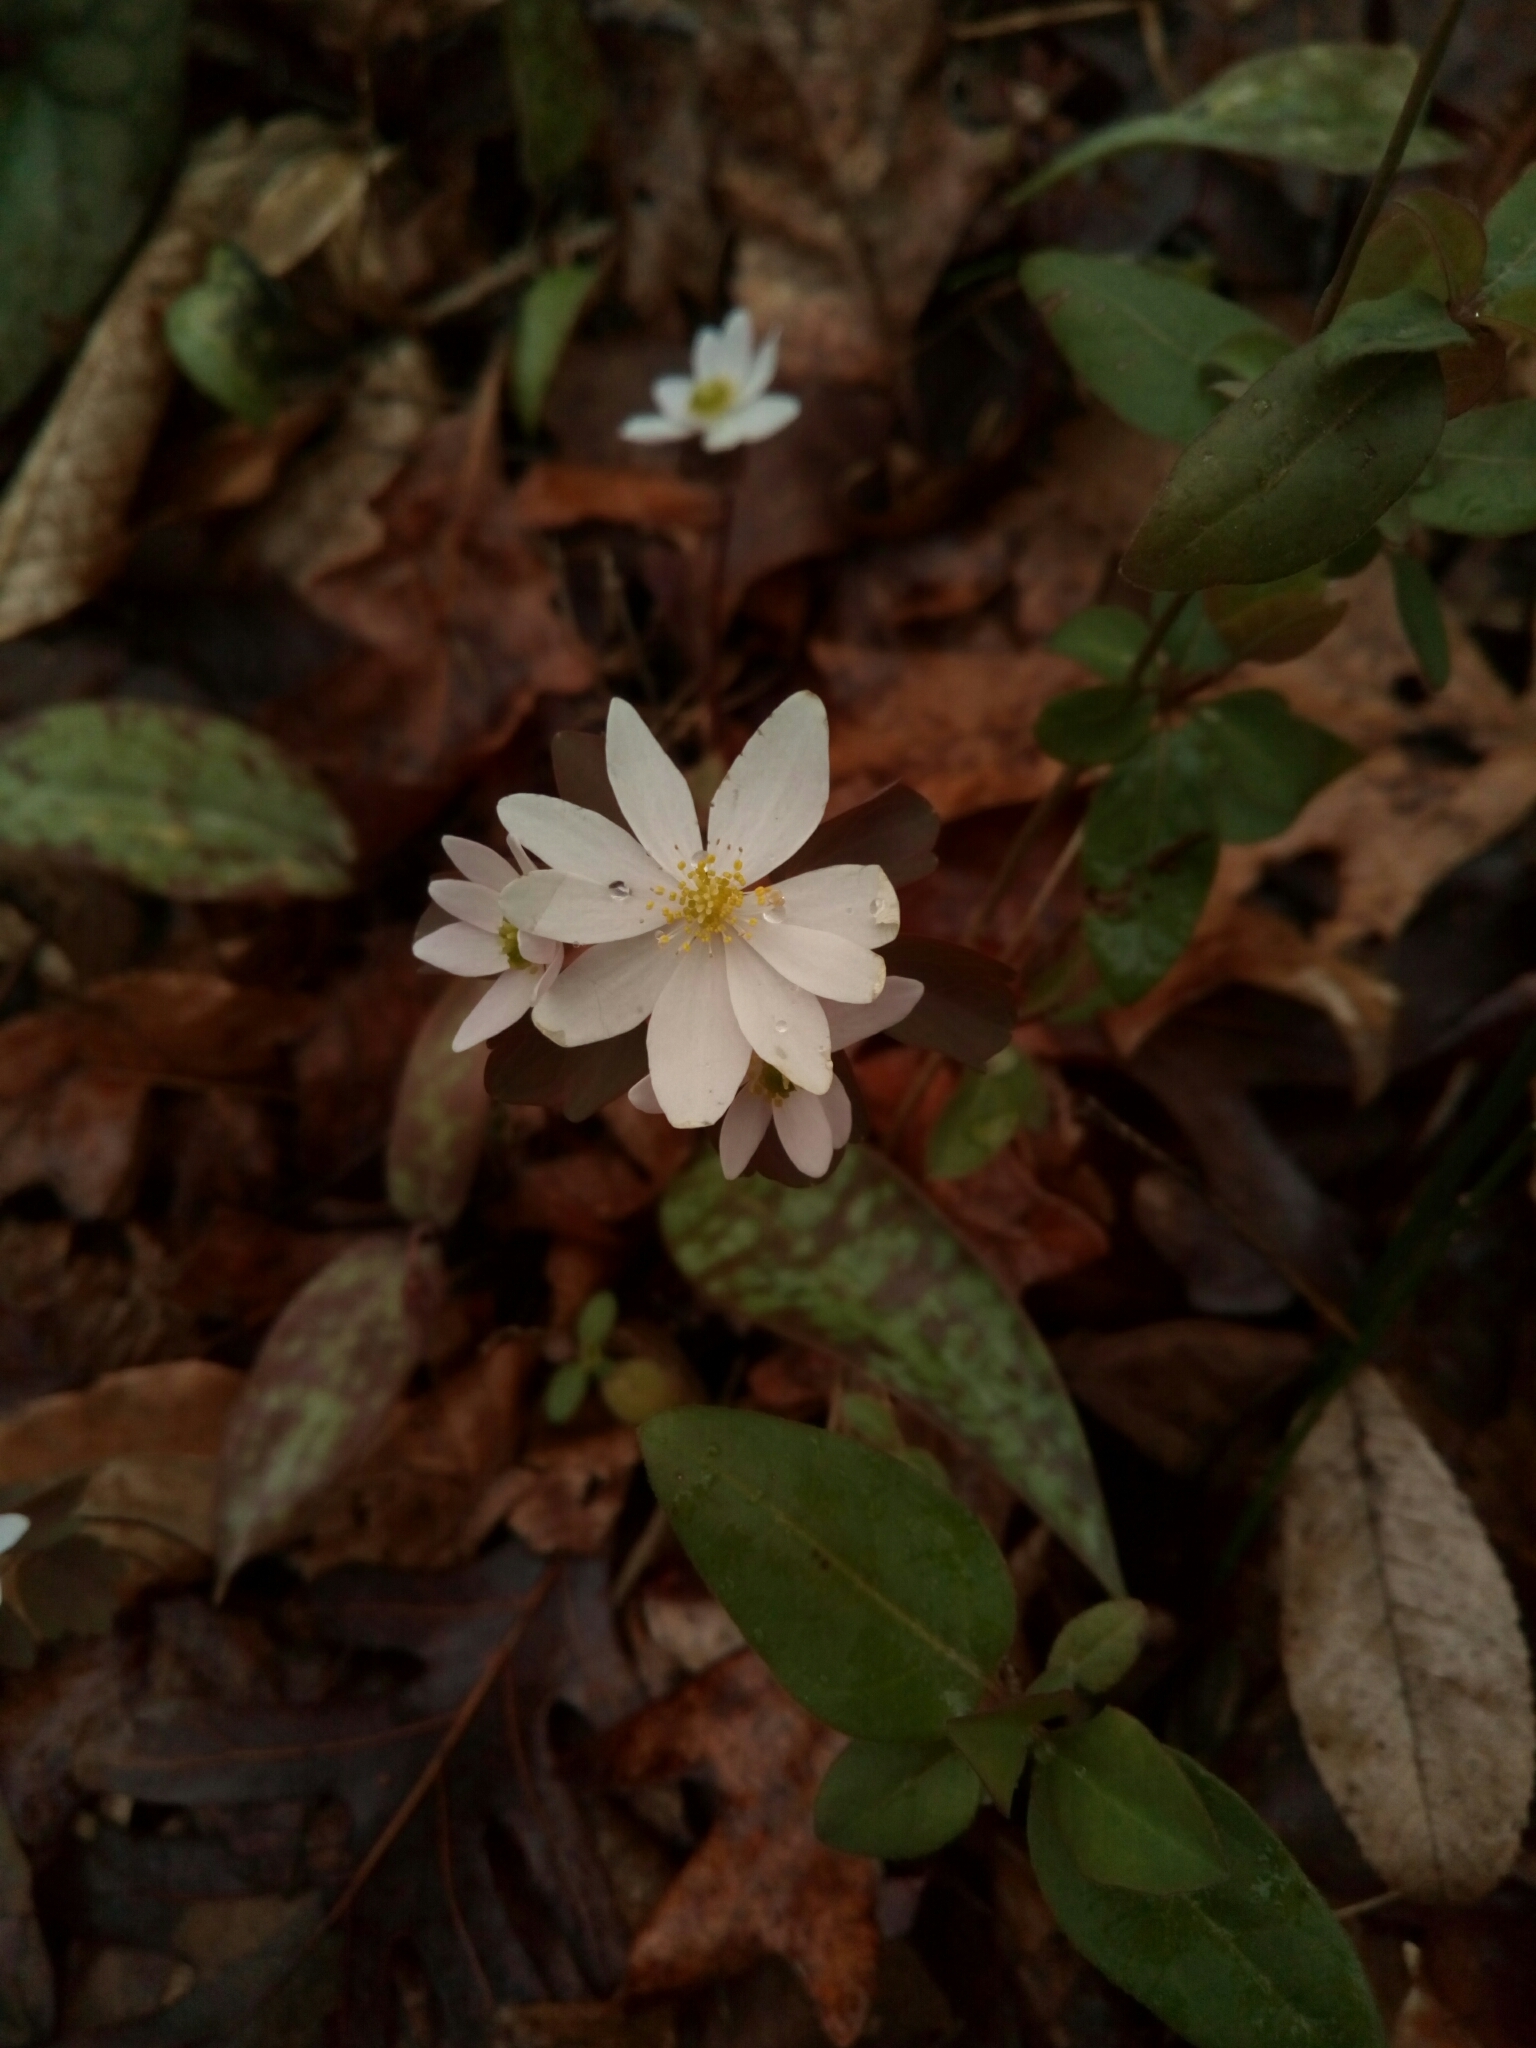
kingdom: Plantae
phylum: Tracheophyta
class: Magnoliopsida
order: Ranunculales
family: Ranunculaceae
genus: Thalictrum
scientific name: Thalictrum thalictroides
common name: Rue-anemone
